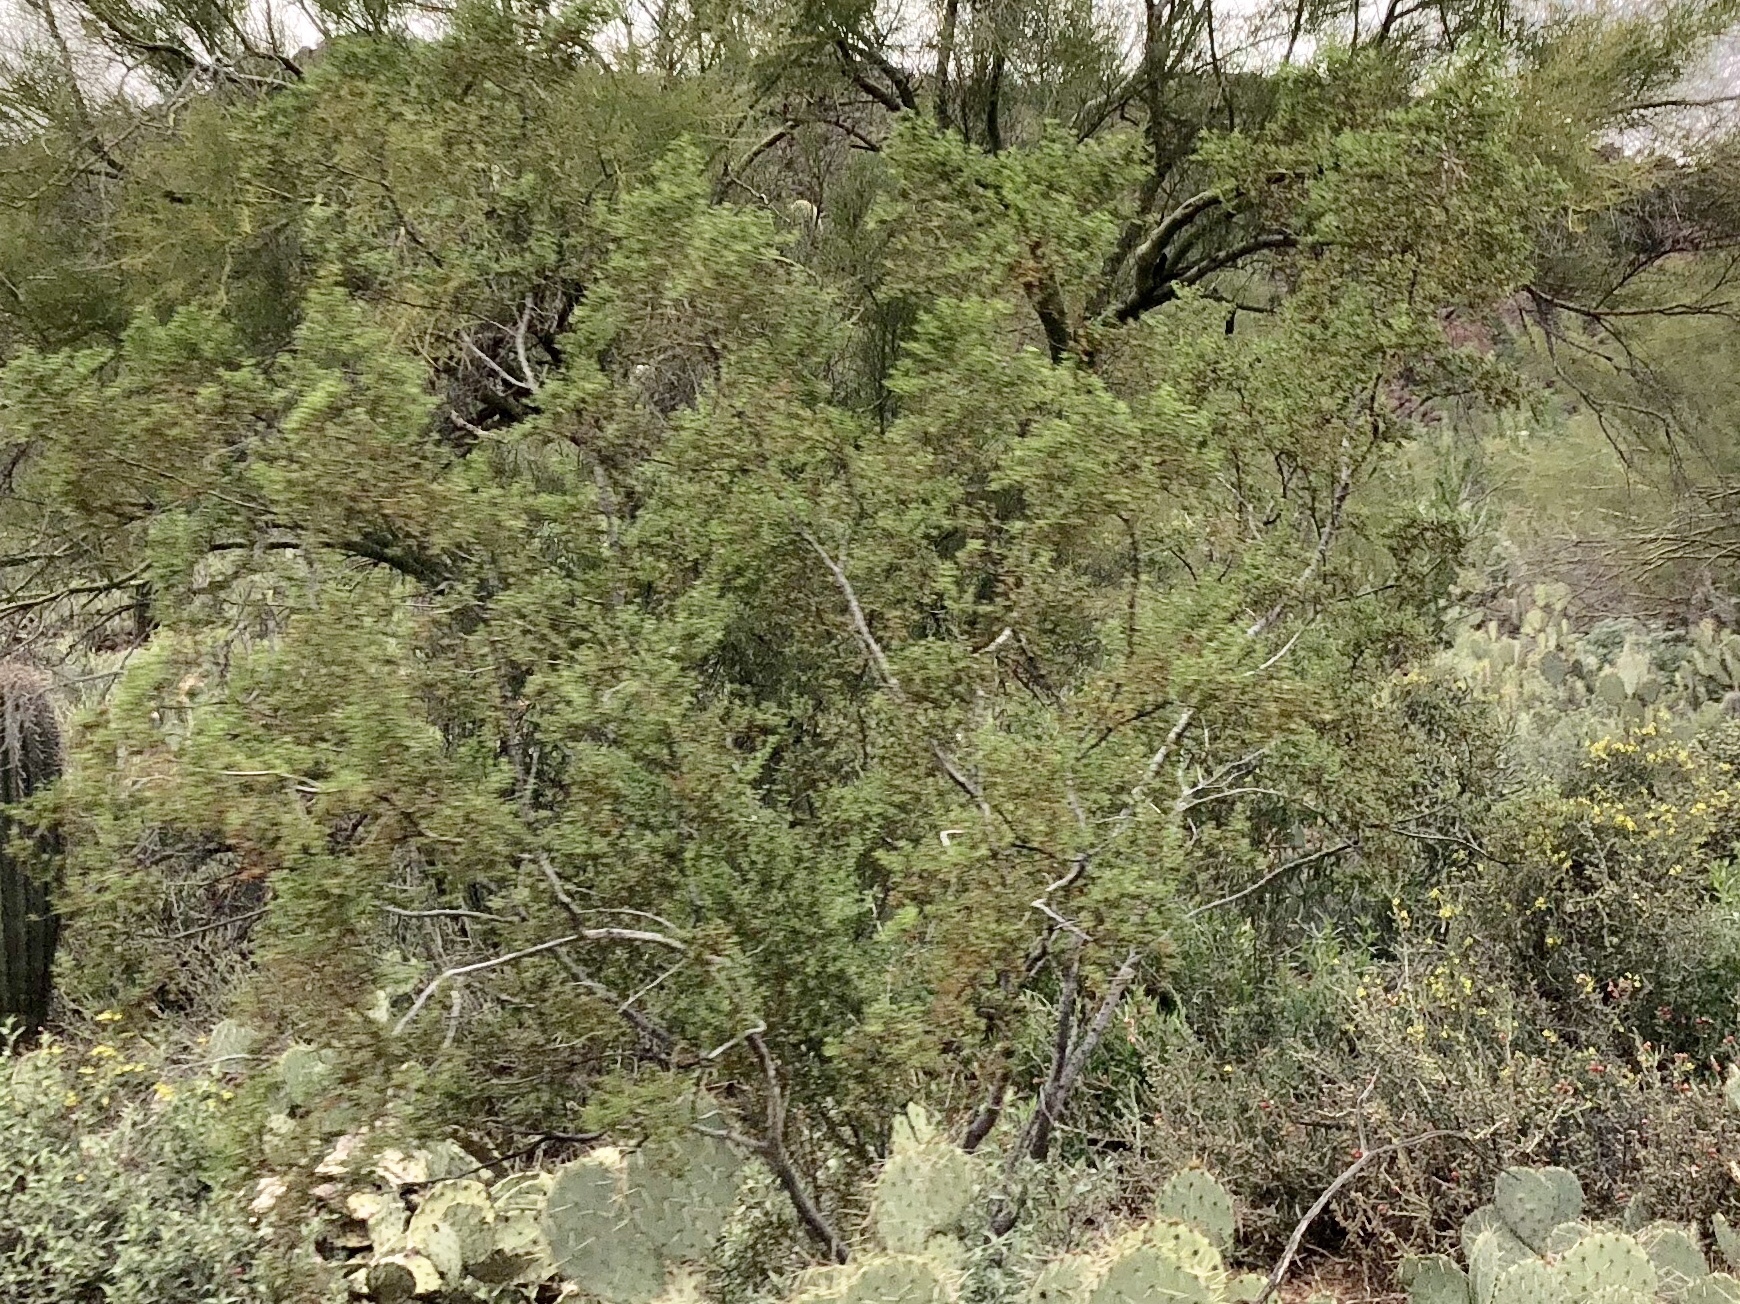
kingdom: Plantae
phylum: Tracheophyta
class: Magnoliopsida
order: Zygophyllales
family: Zygophyllaceae
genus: Larrea
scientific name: Larrea tridentata
